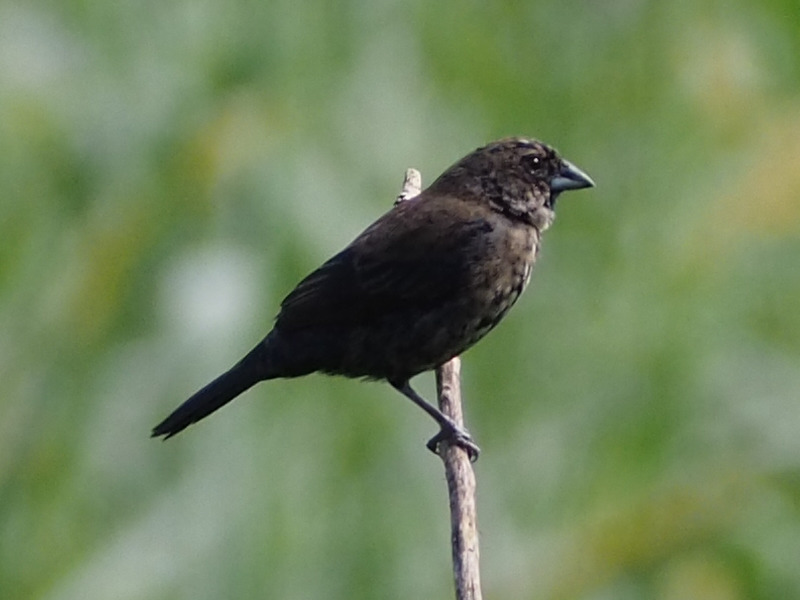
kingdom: Animalia
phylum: Chordata
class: Aves
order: Passeriformes
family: Thraupidae
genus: Volatinia
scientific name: Volatinia jacarina
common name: Blue-black grassquit
